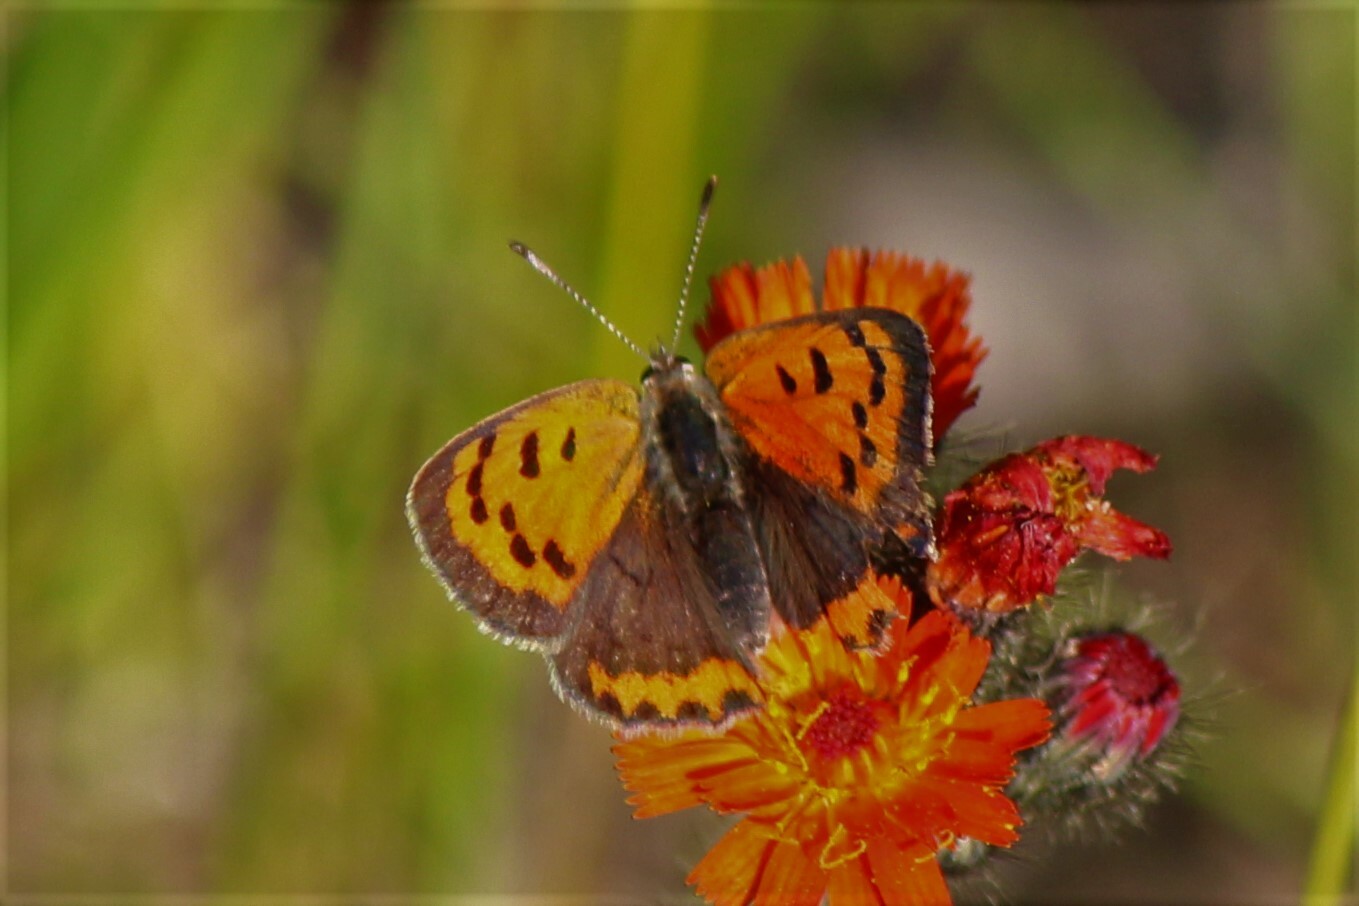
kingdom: Animalia
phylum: Arthropoda
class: Insecta
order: Lepidoptera
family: Lycaenidae
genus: Lycaena
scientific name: Lycaena hypophlaeas
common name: American copper
